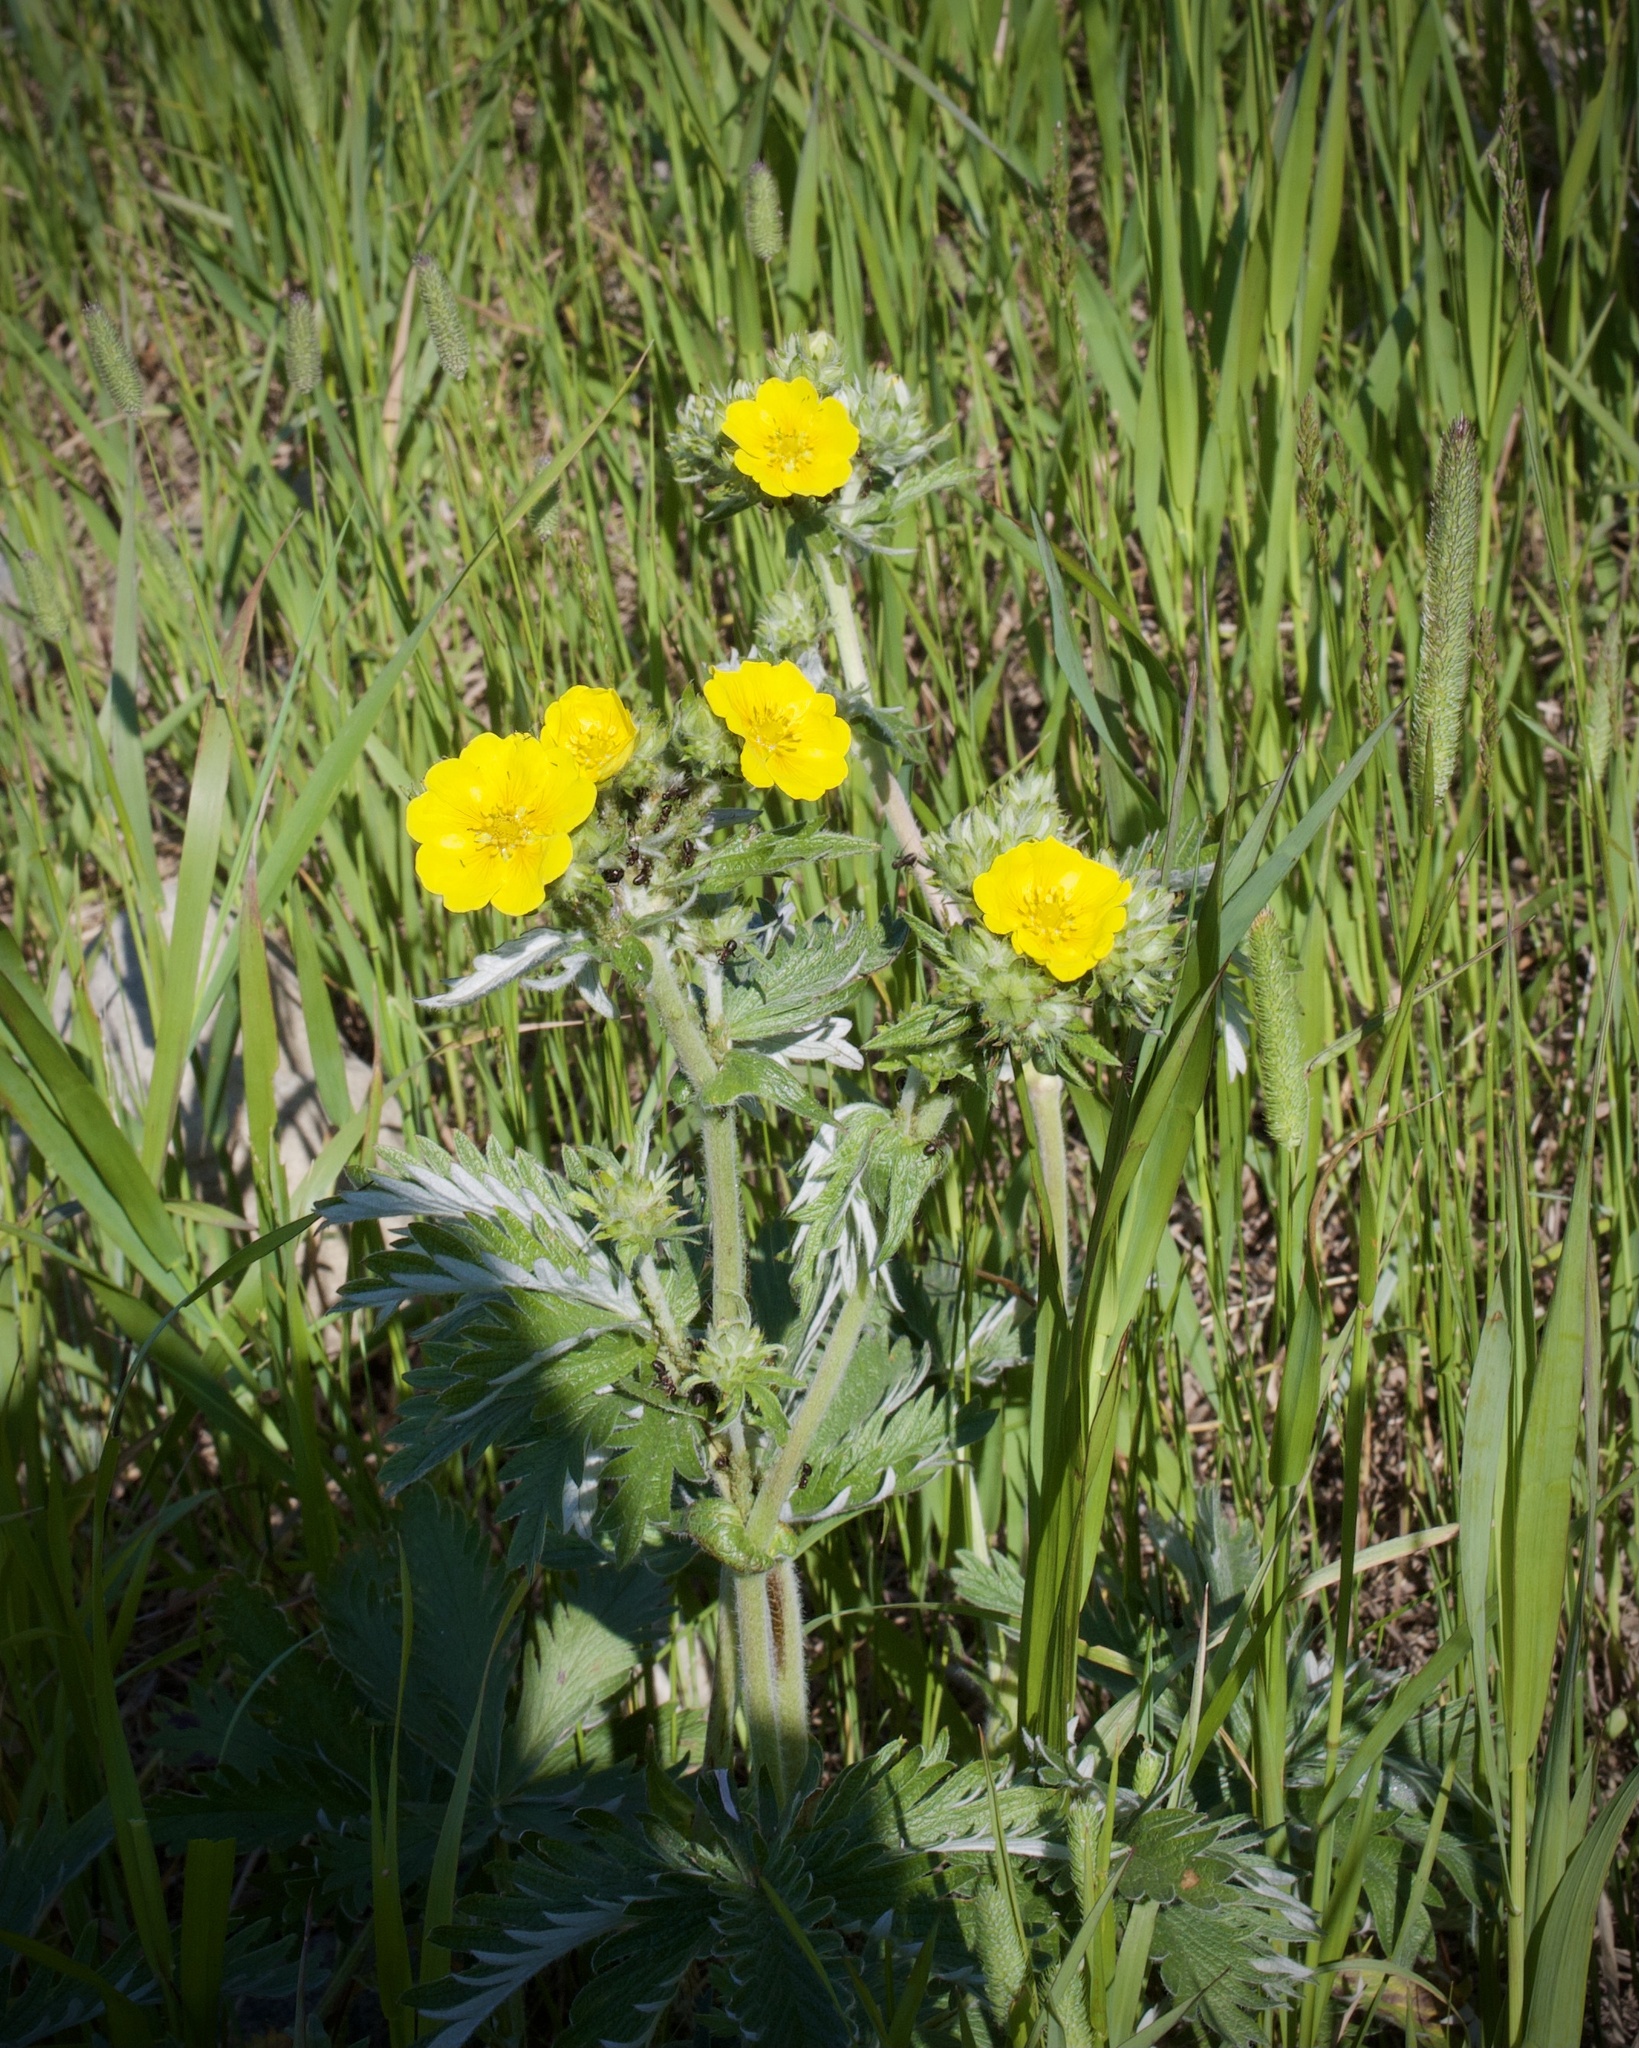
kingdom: Plantae
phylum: Tracheophyta
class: Magnoliopsida
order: Rosales
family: Rosaceae
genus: Potentilla
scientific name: Potentilla gracilis
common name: Graceful cinquefoil
